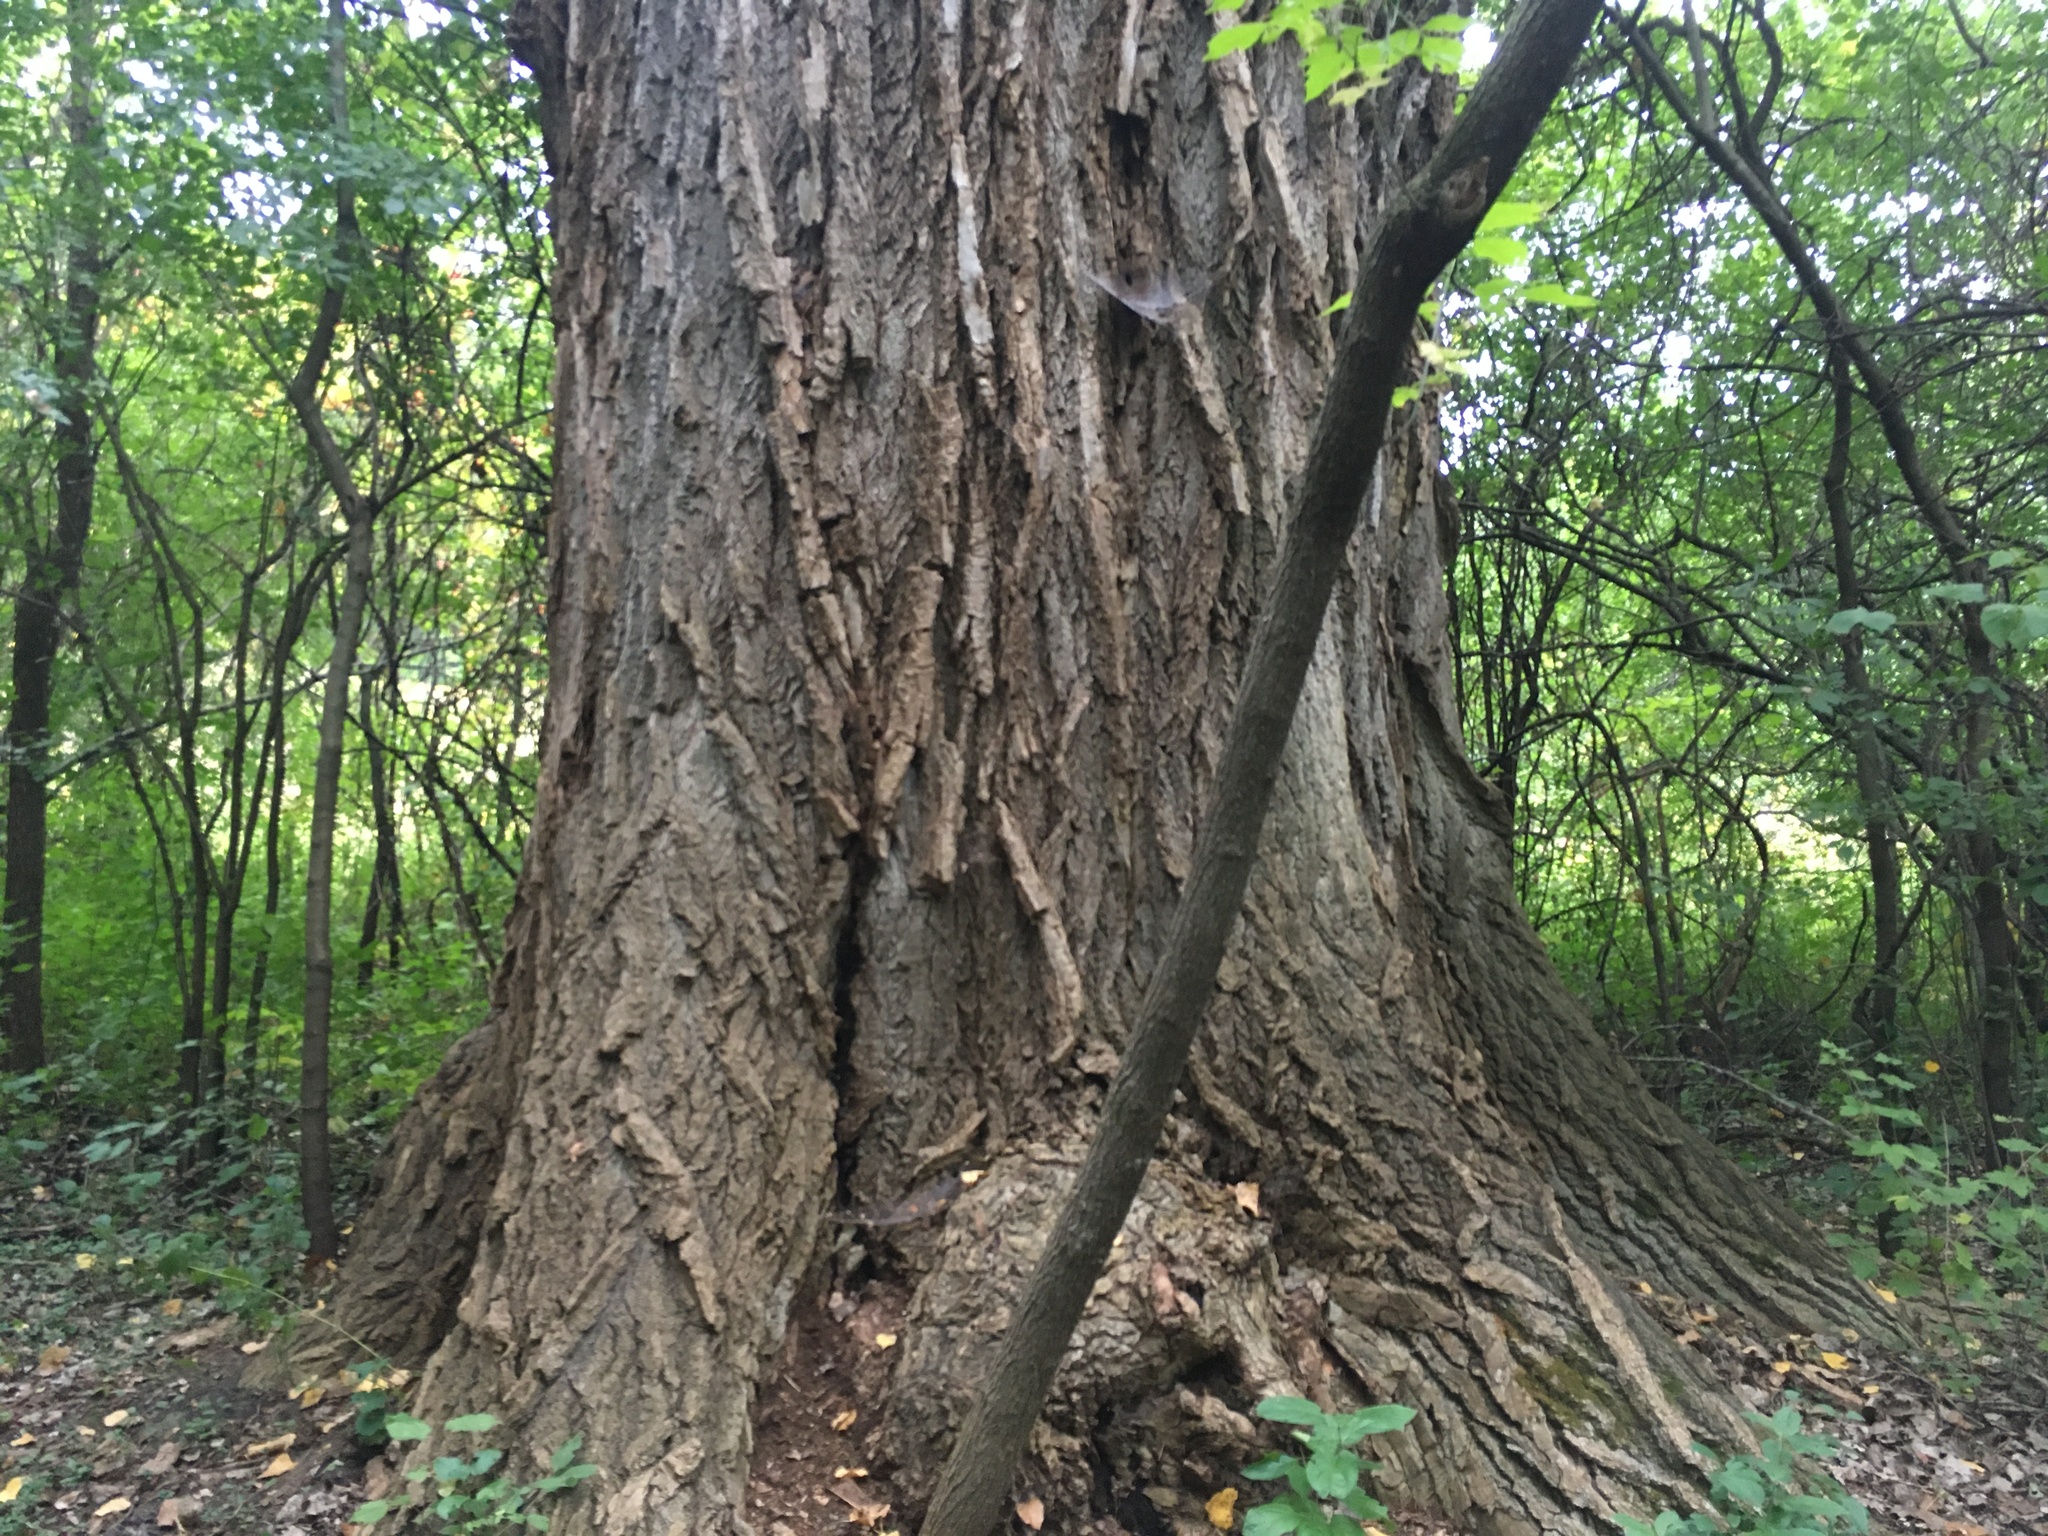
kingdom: Plantae
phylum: Tracheophyta
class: Magnoliopsida
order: Malpighiales
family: Salicaceae
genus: Populus
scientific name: Populus deltoides
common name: Eastern cottonwood
